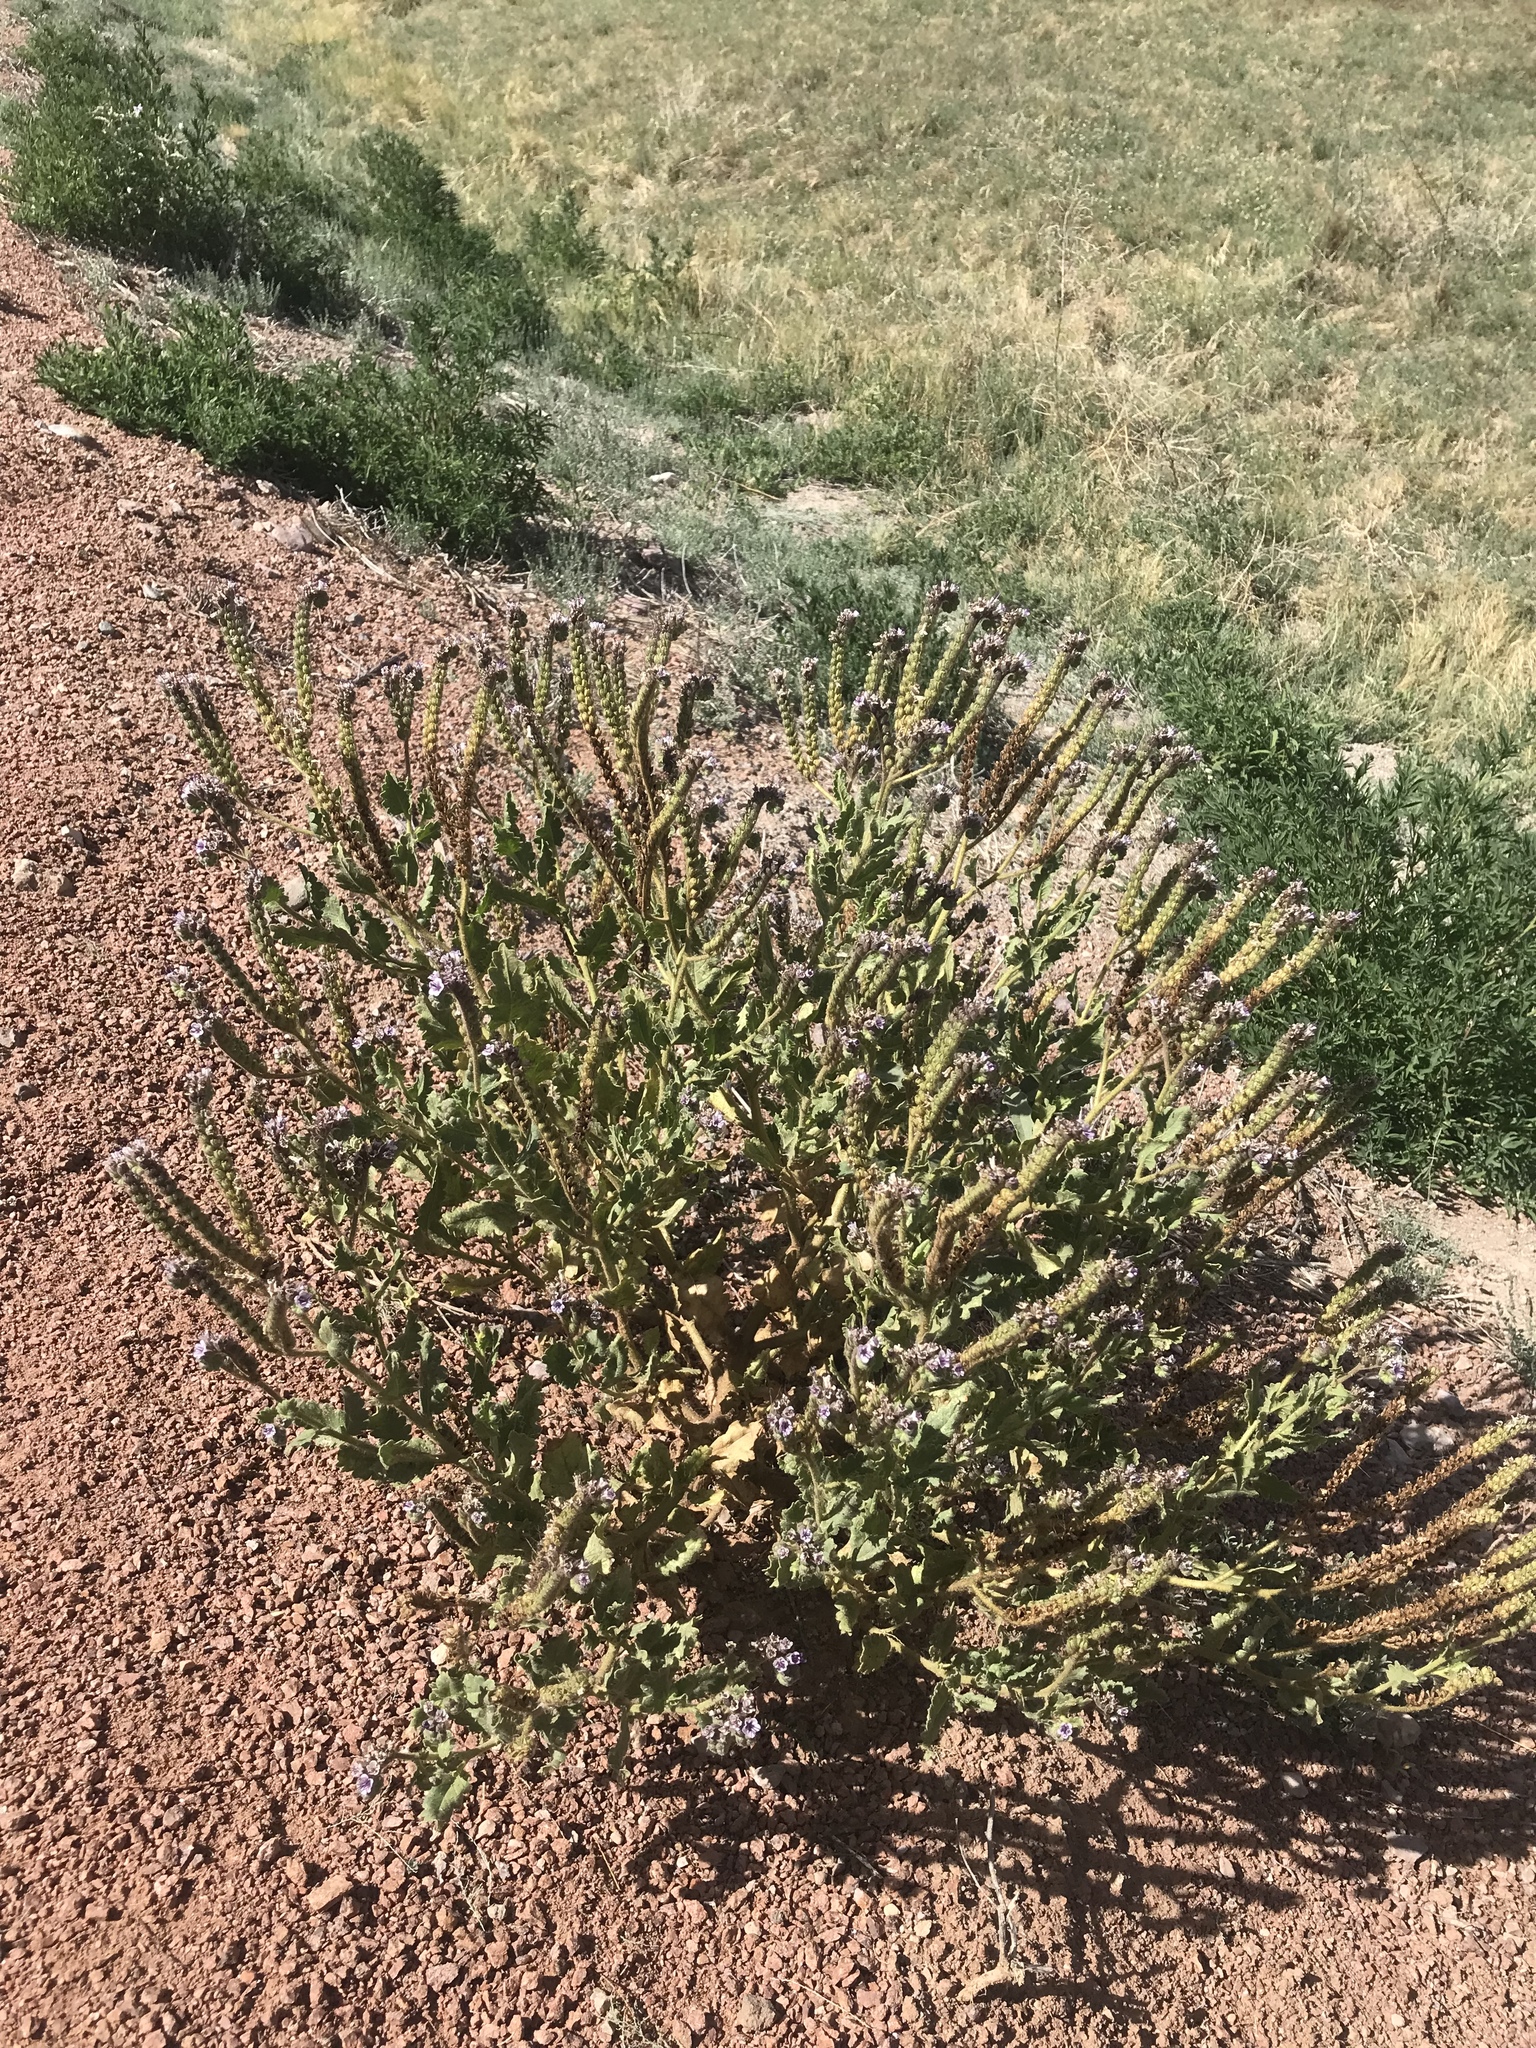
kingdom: Plantae
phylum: Tracheophyta
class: Magnoliopsida
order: Boraginales
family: Hydrophyllaceae
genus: Phacelia
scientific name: Phacelia integrifolia
